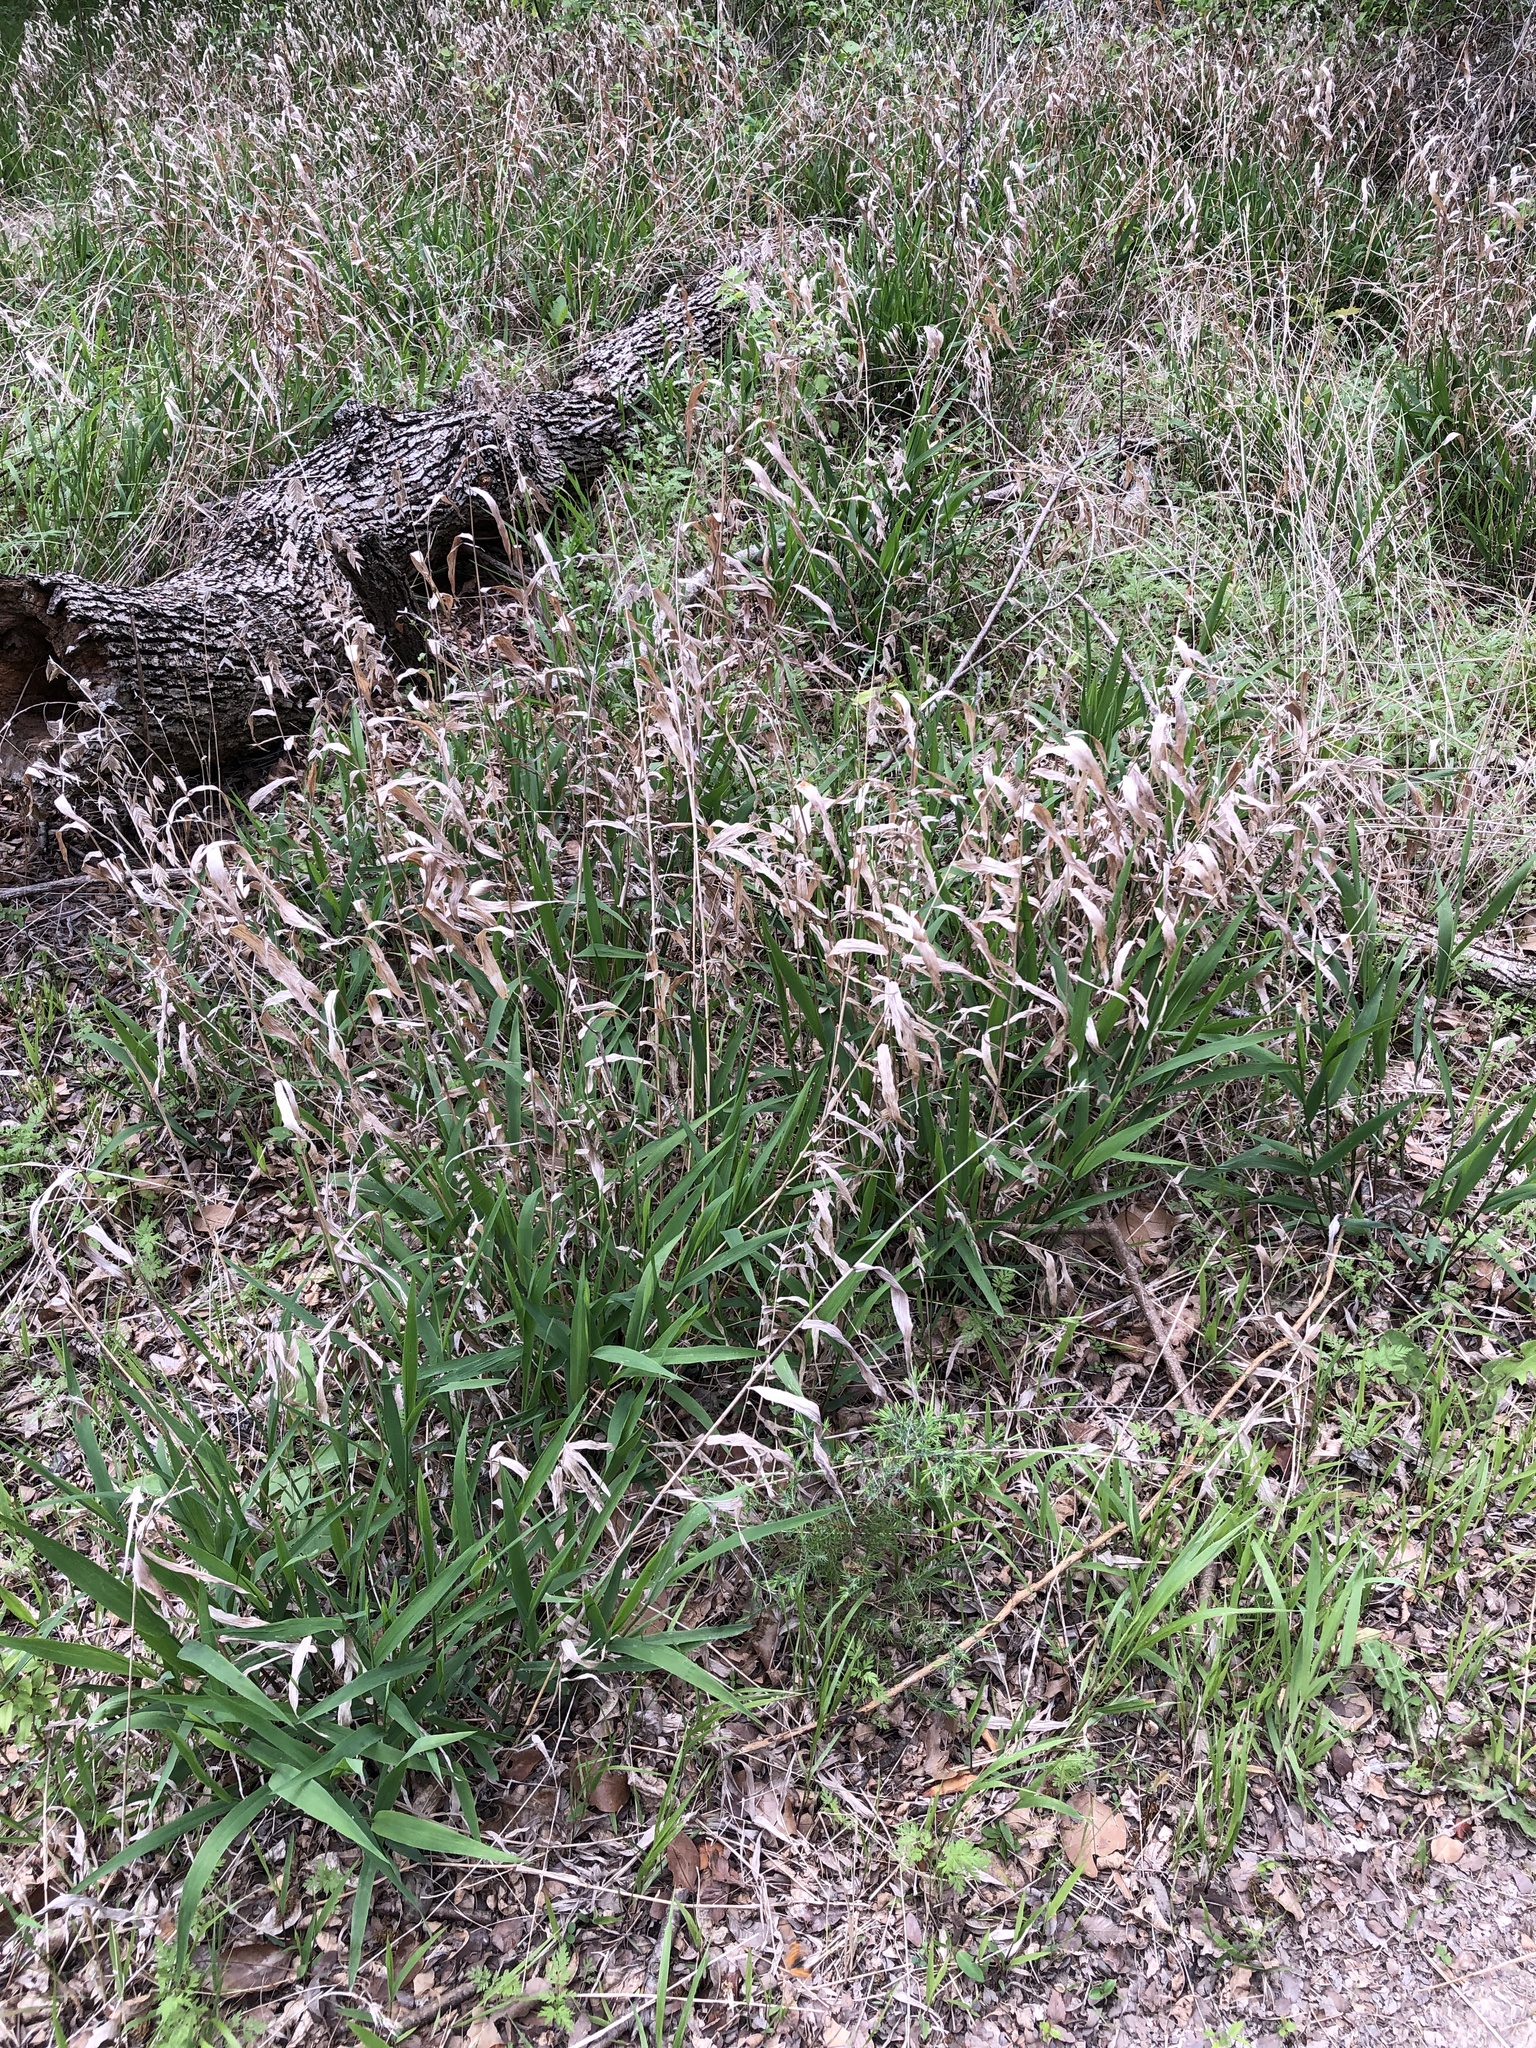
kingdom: Plantae
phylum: Tracheophyta
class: Liliopsida
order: Poales
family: Poaceae
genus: Chasmanthium
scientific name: Chasmanthium latifolium
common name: Broad-leaved chasmanthium
